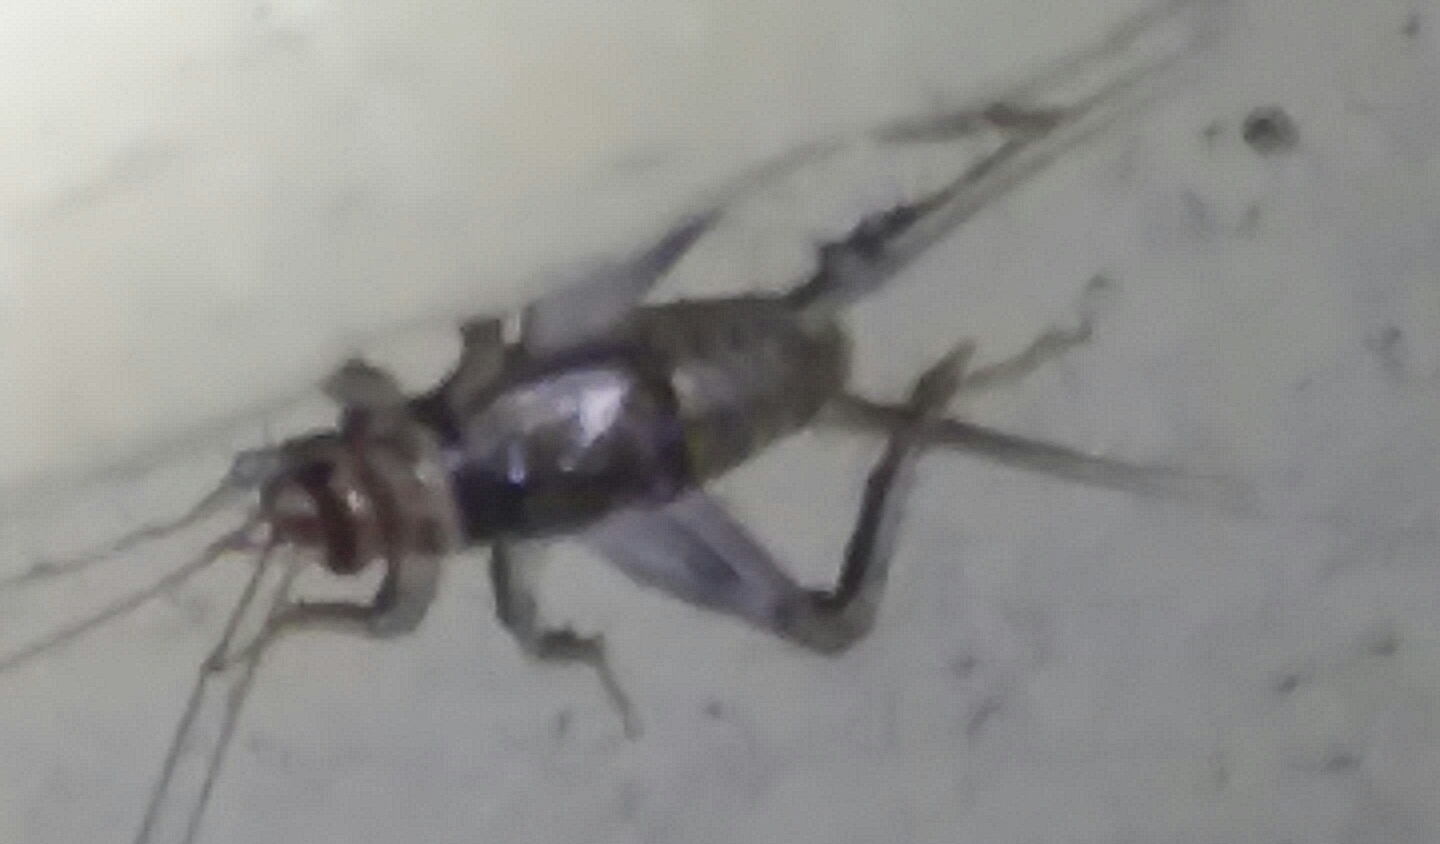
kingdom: Animalia
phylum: Arthropoda
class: Insecta
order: Orthoptera
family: Gryllidae
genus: Gryllodes
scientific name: Gryllodes sigillatus
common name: Tropical house cricket
